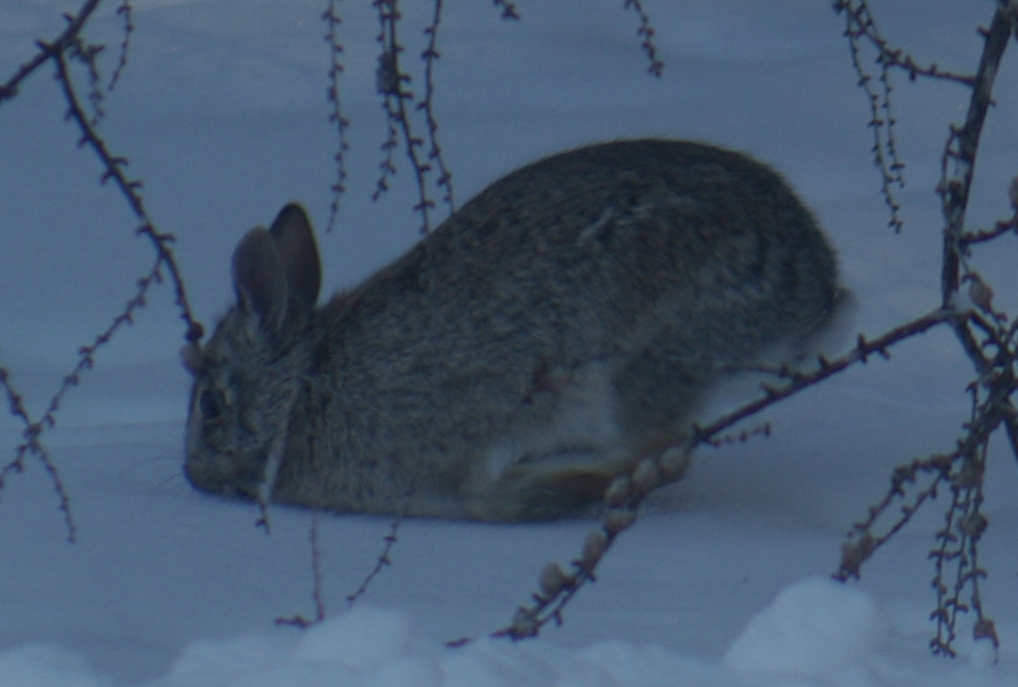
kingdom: Animalia
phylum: Chordata
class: Mammalia
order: Lagomorpha
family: Leporidae
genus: Sylvilagus
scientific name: Sylvilagus floridanus
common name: Eastern cottontail
